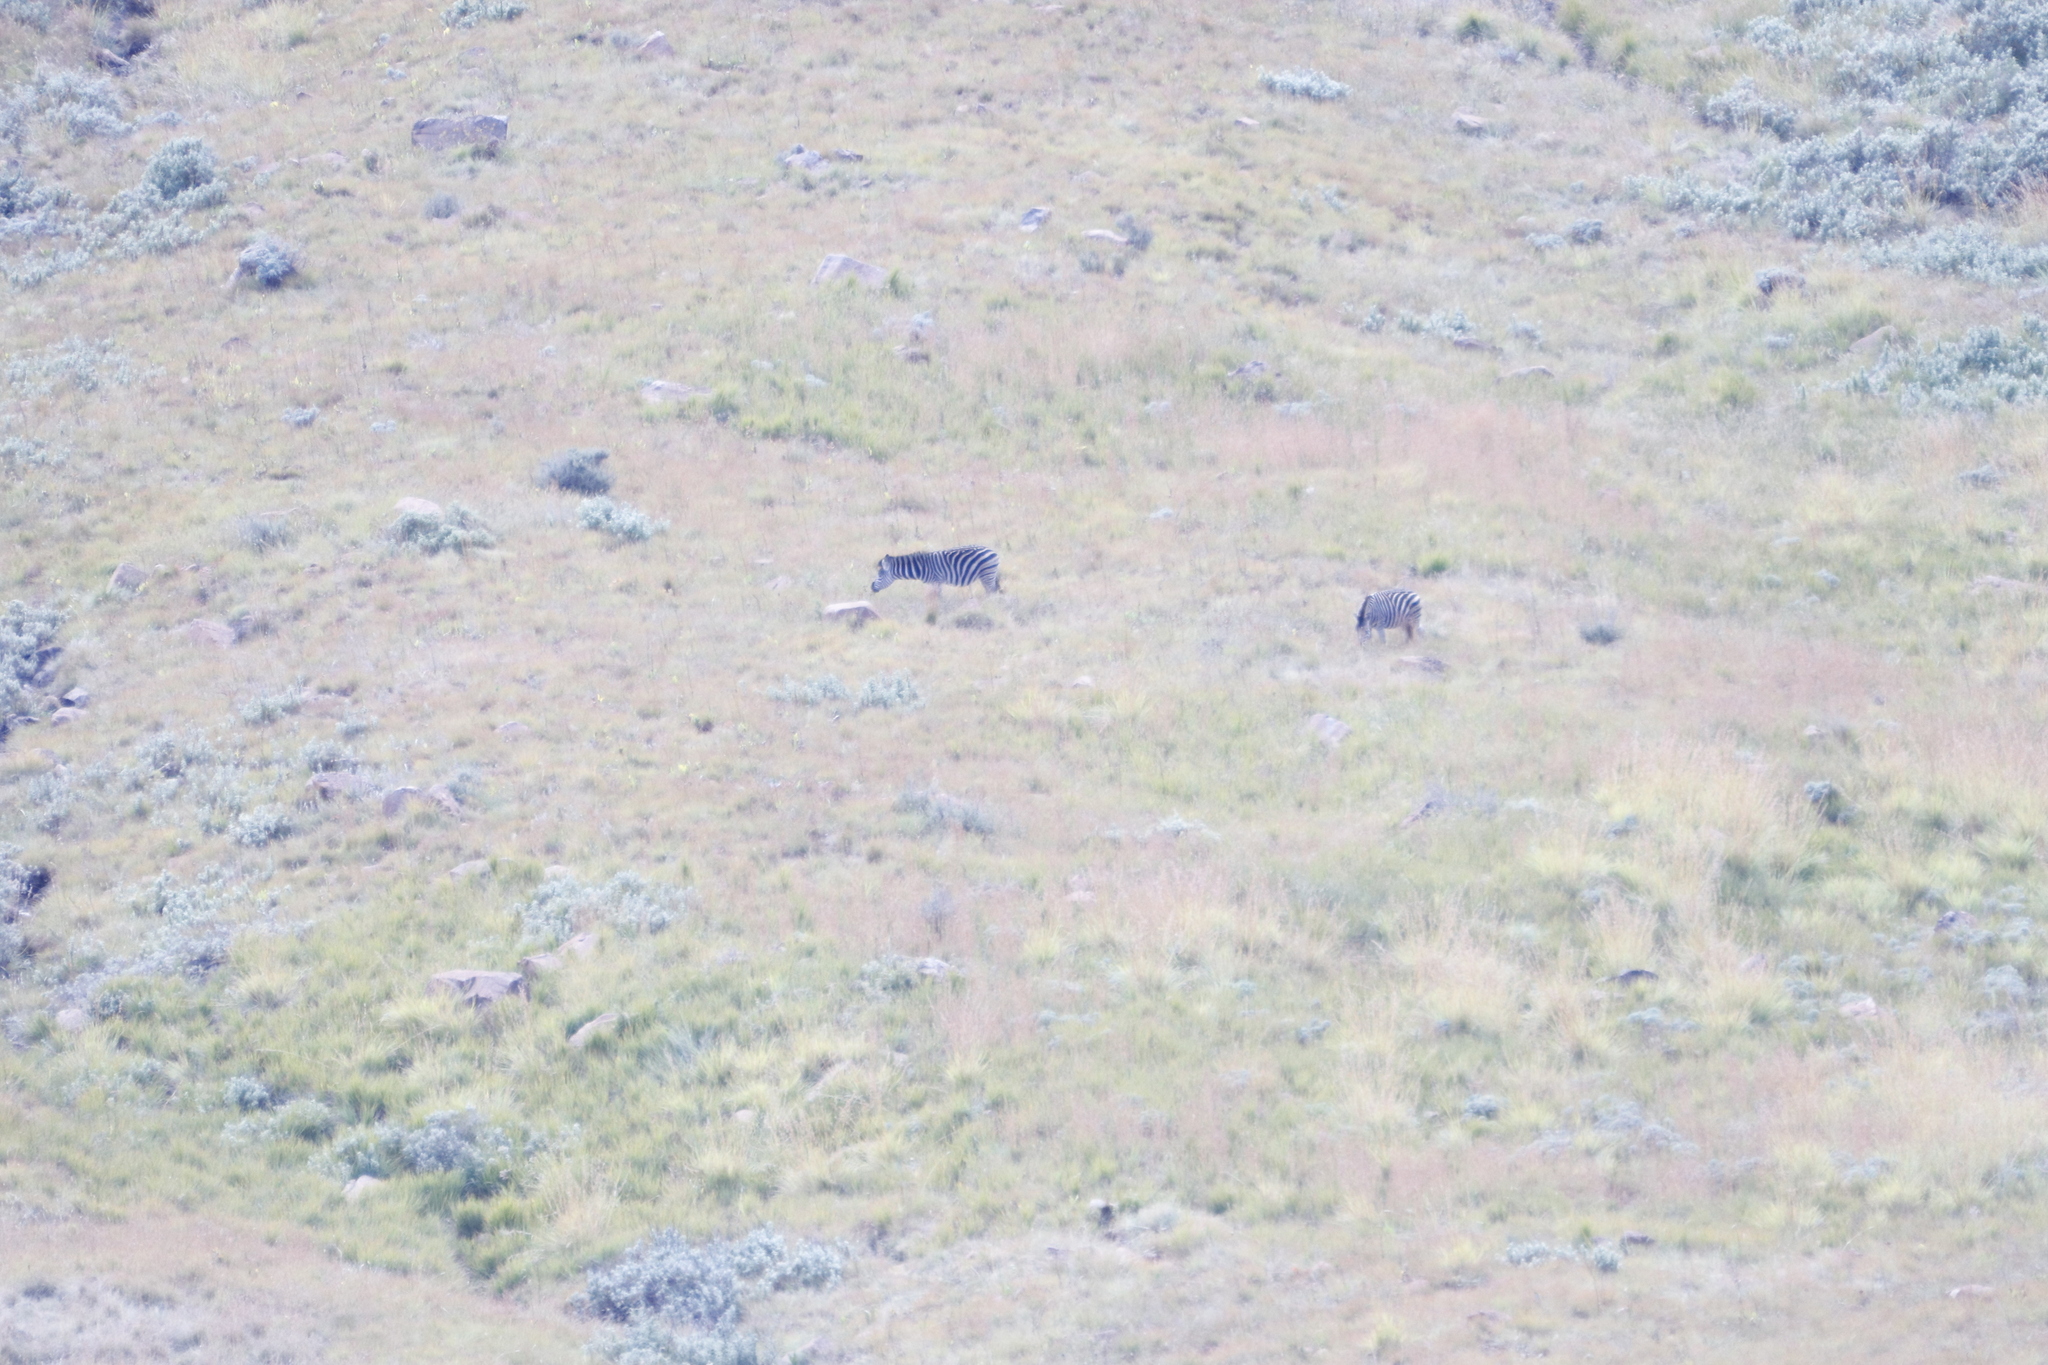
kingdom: Animalia
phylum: Chordata
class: Mammalia
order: Perissodactyla
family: Equidae
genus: Equus
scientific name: Equus quagga
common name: Plains zebra
